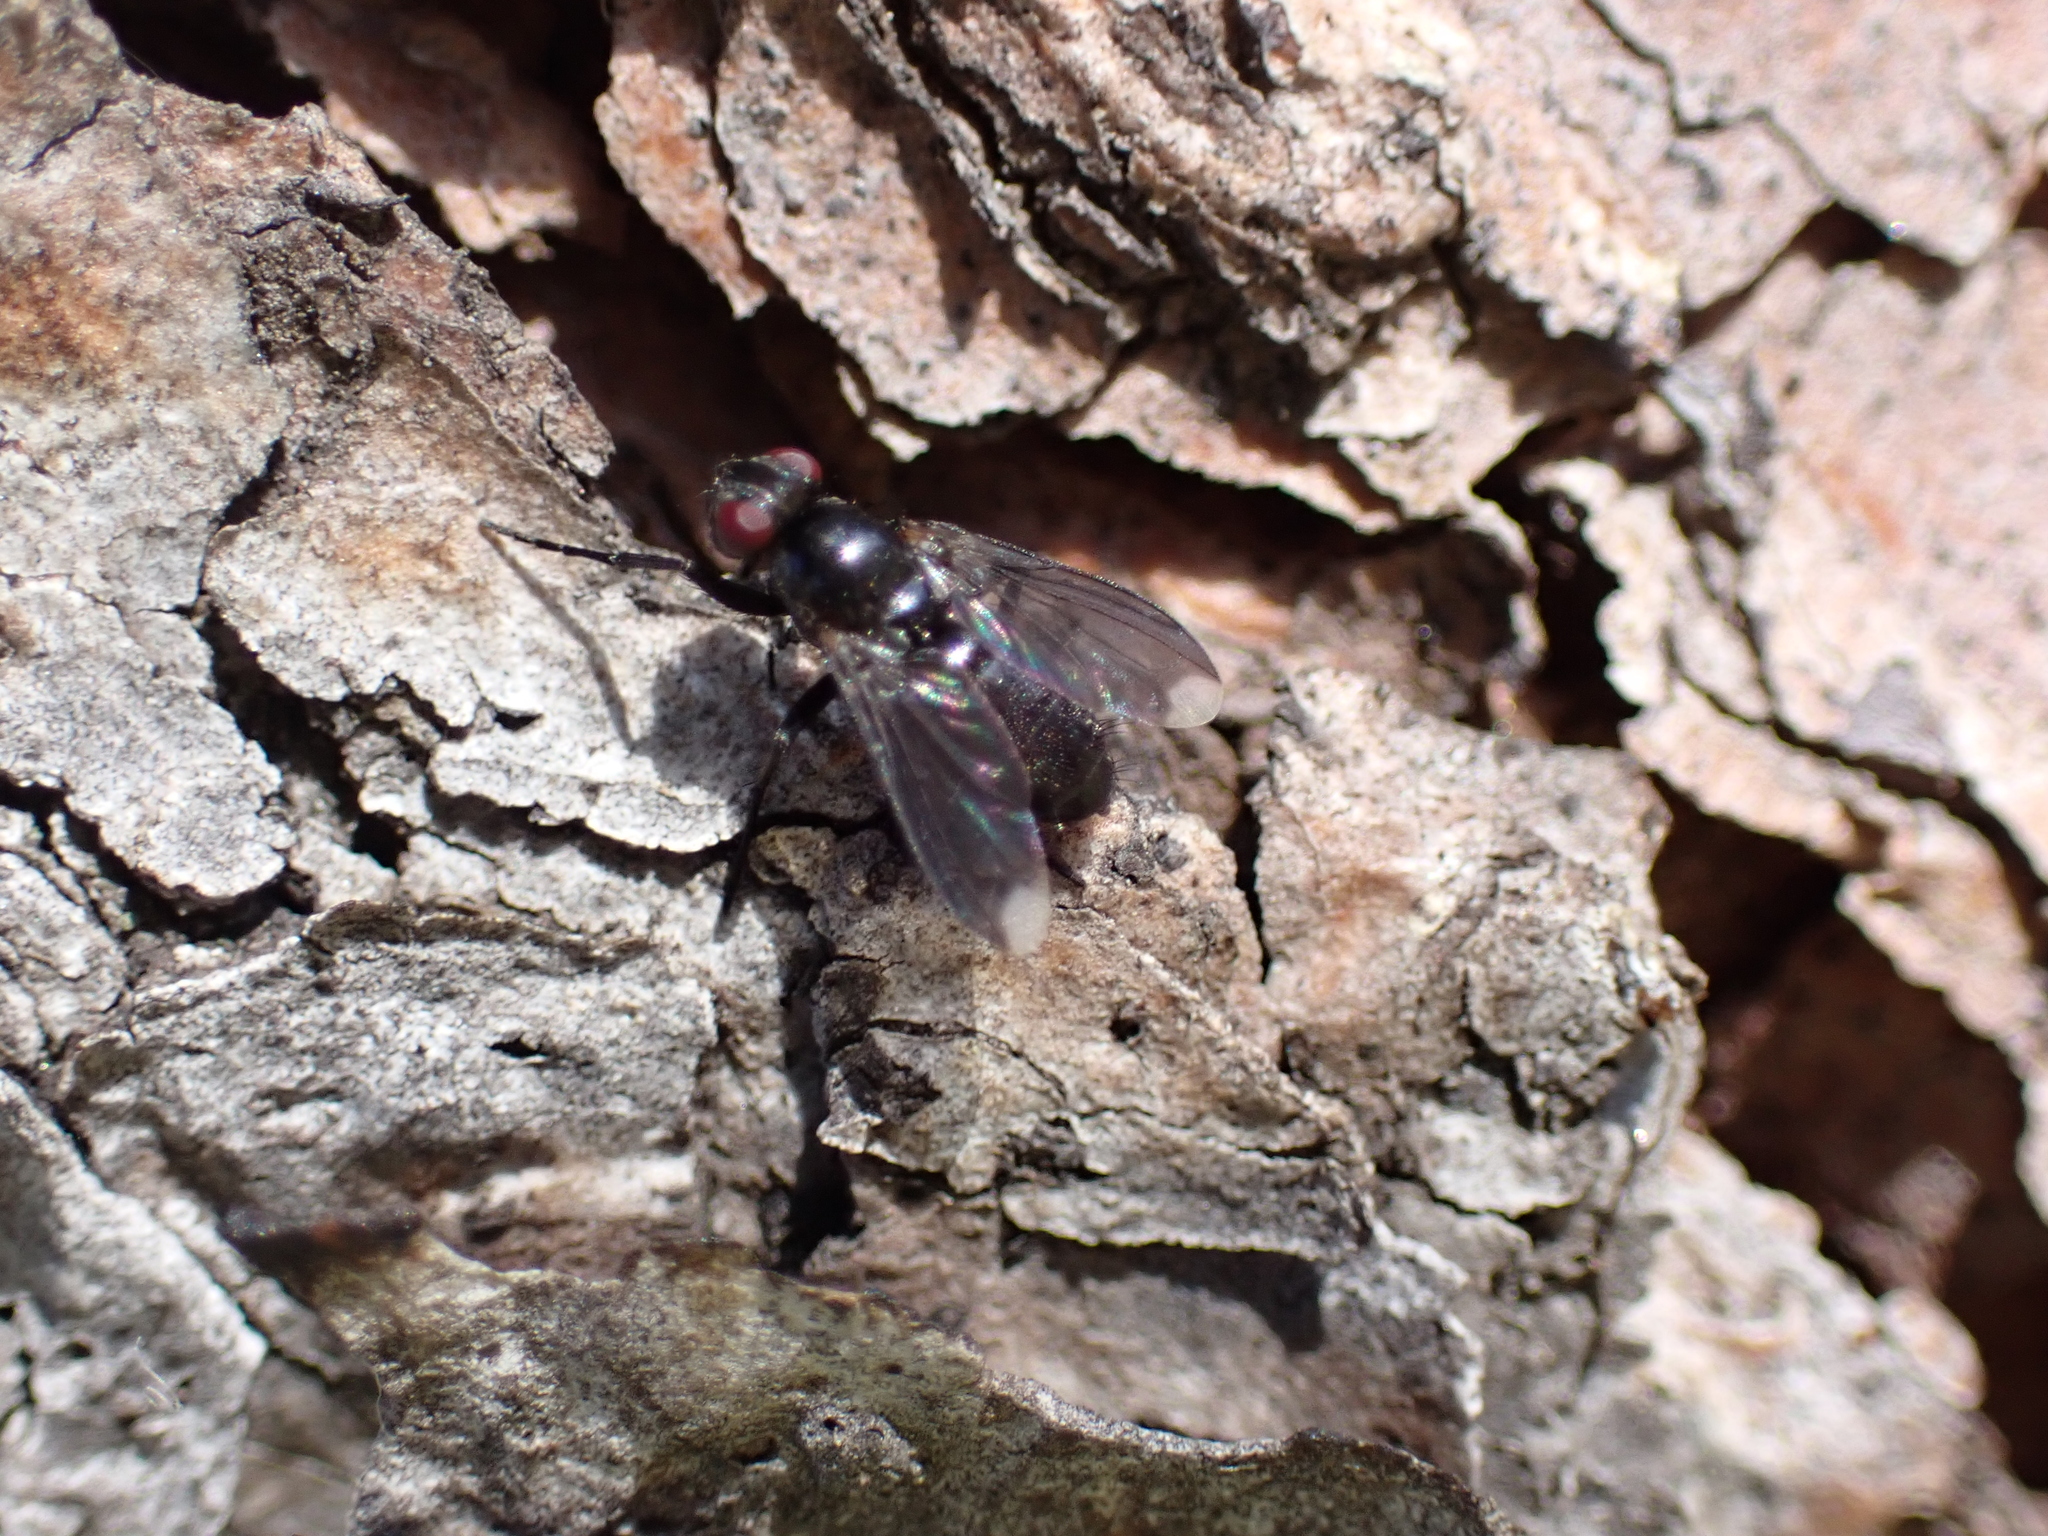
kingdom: Animalia
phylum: Arthropoda
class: Insecta
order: Diptera
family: Calliphoridae
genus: Melanophora
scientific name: Melanophora roralis
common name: Smoky-winged woodlouse-fly
